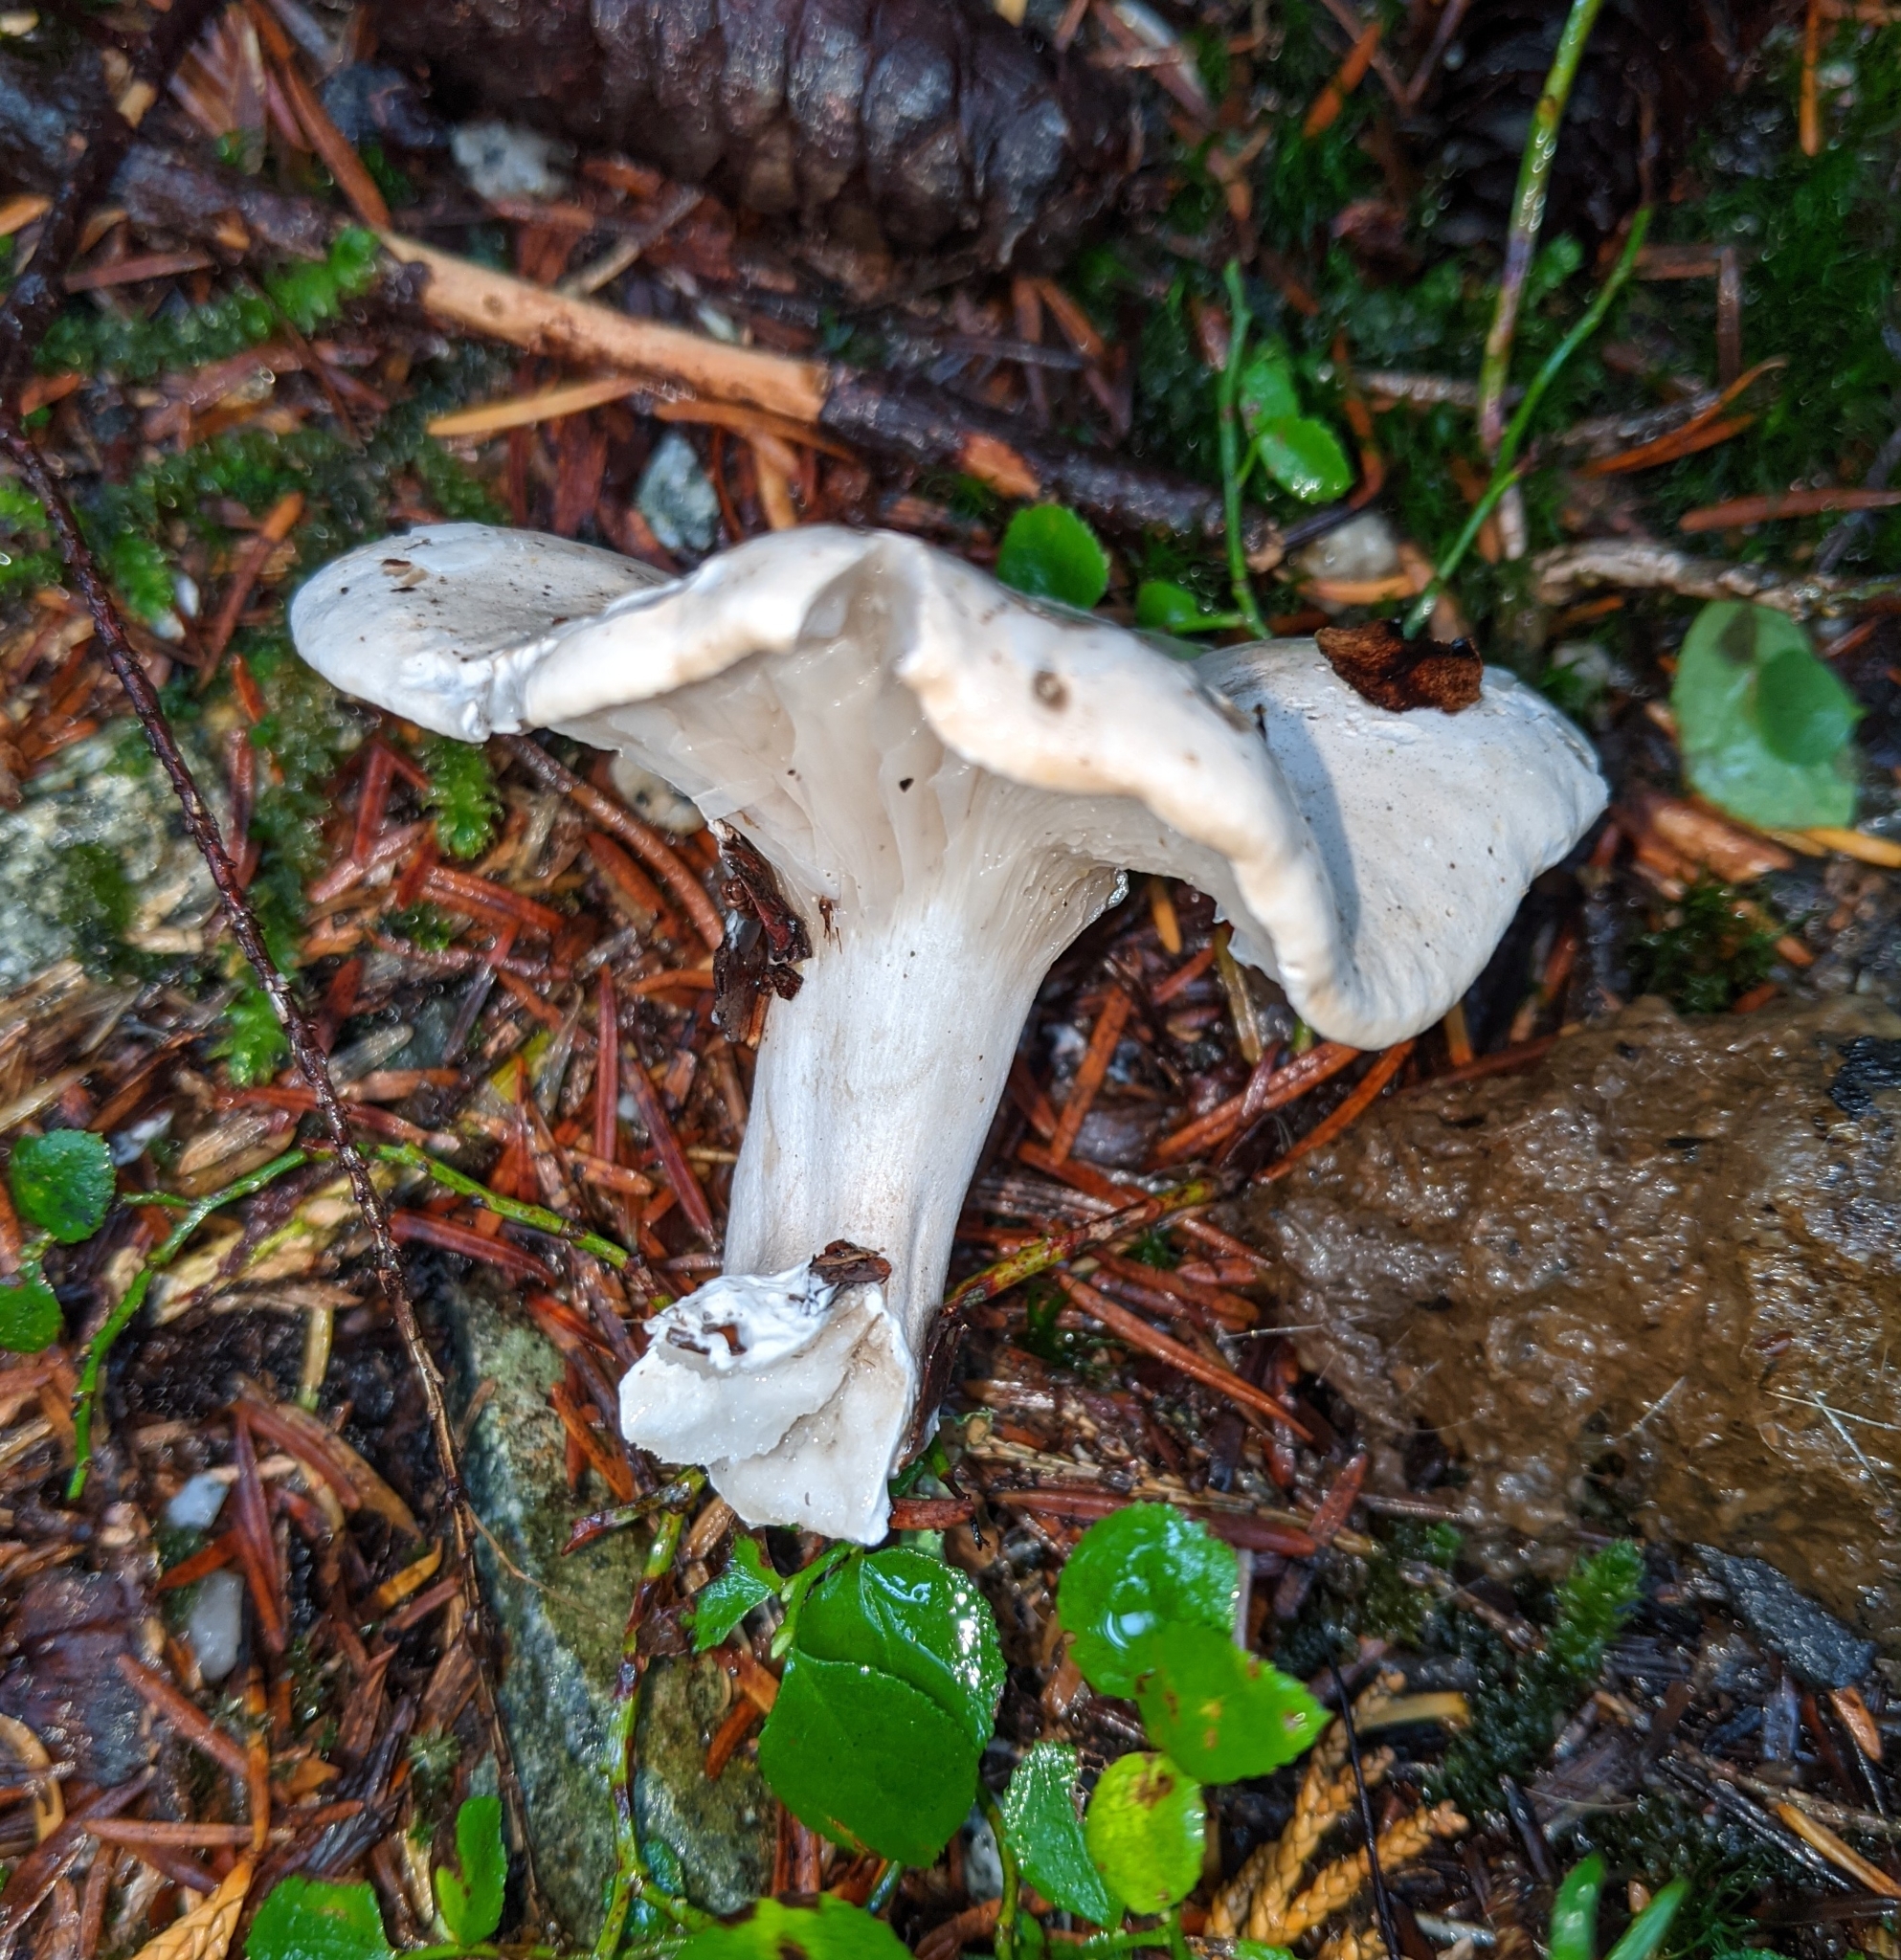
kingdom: Fungi
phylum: Basidiomycota
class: Agaricomycetes
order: Agaricales
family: Entolomataceae
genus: Clitopilus
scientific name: Clitopilus prunulus
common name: The miller
